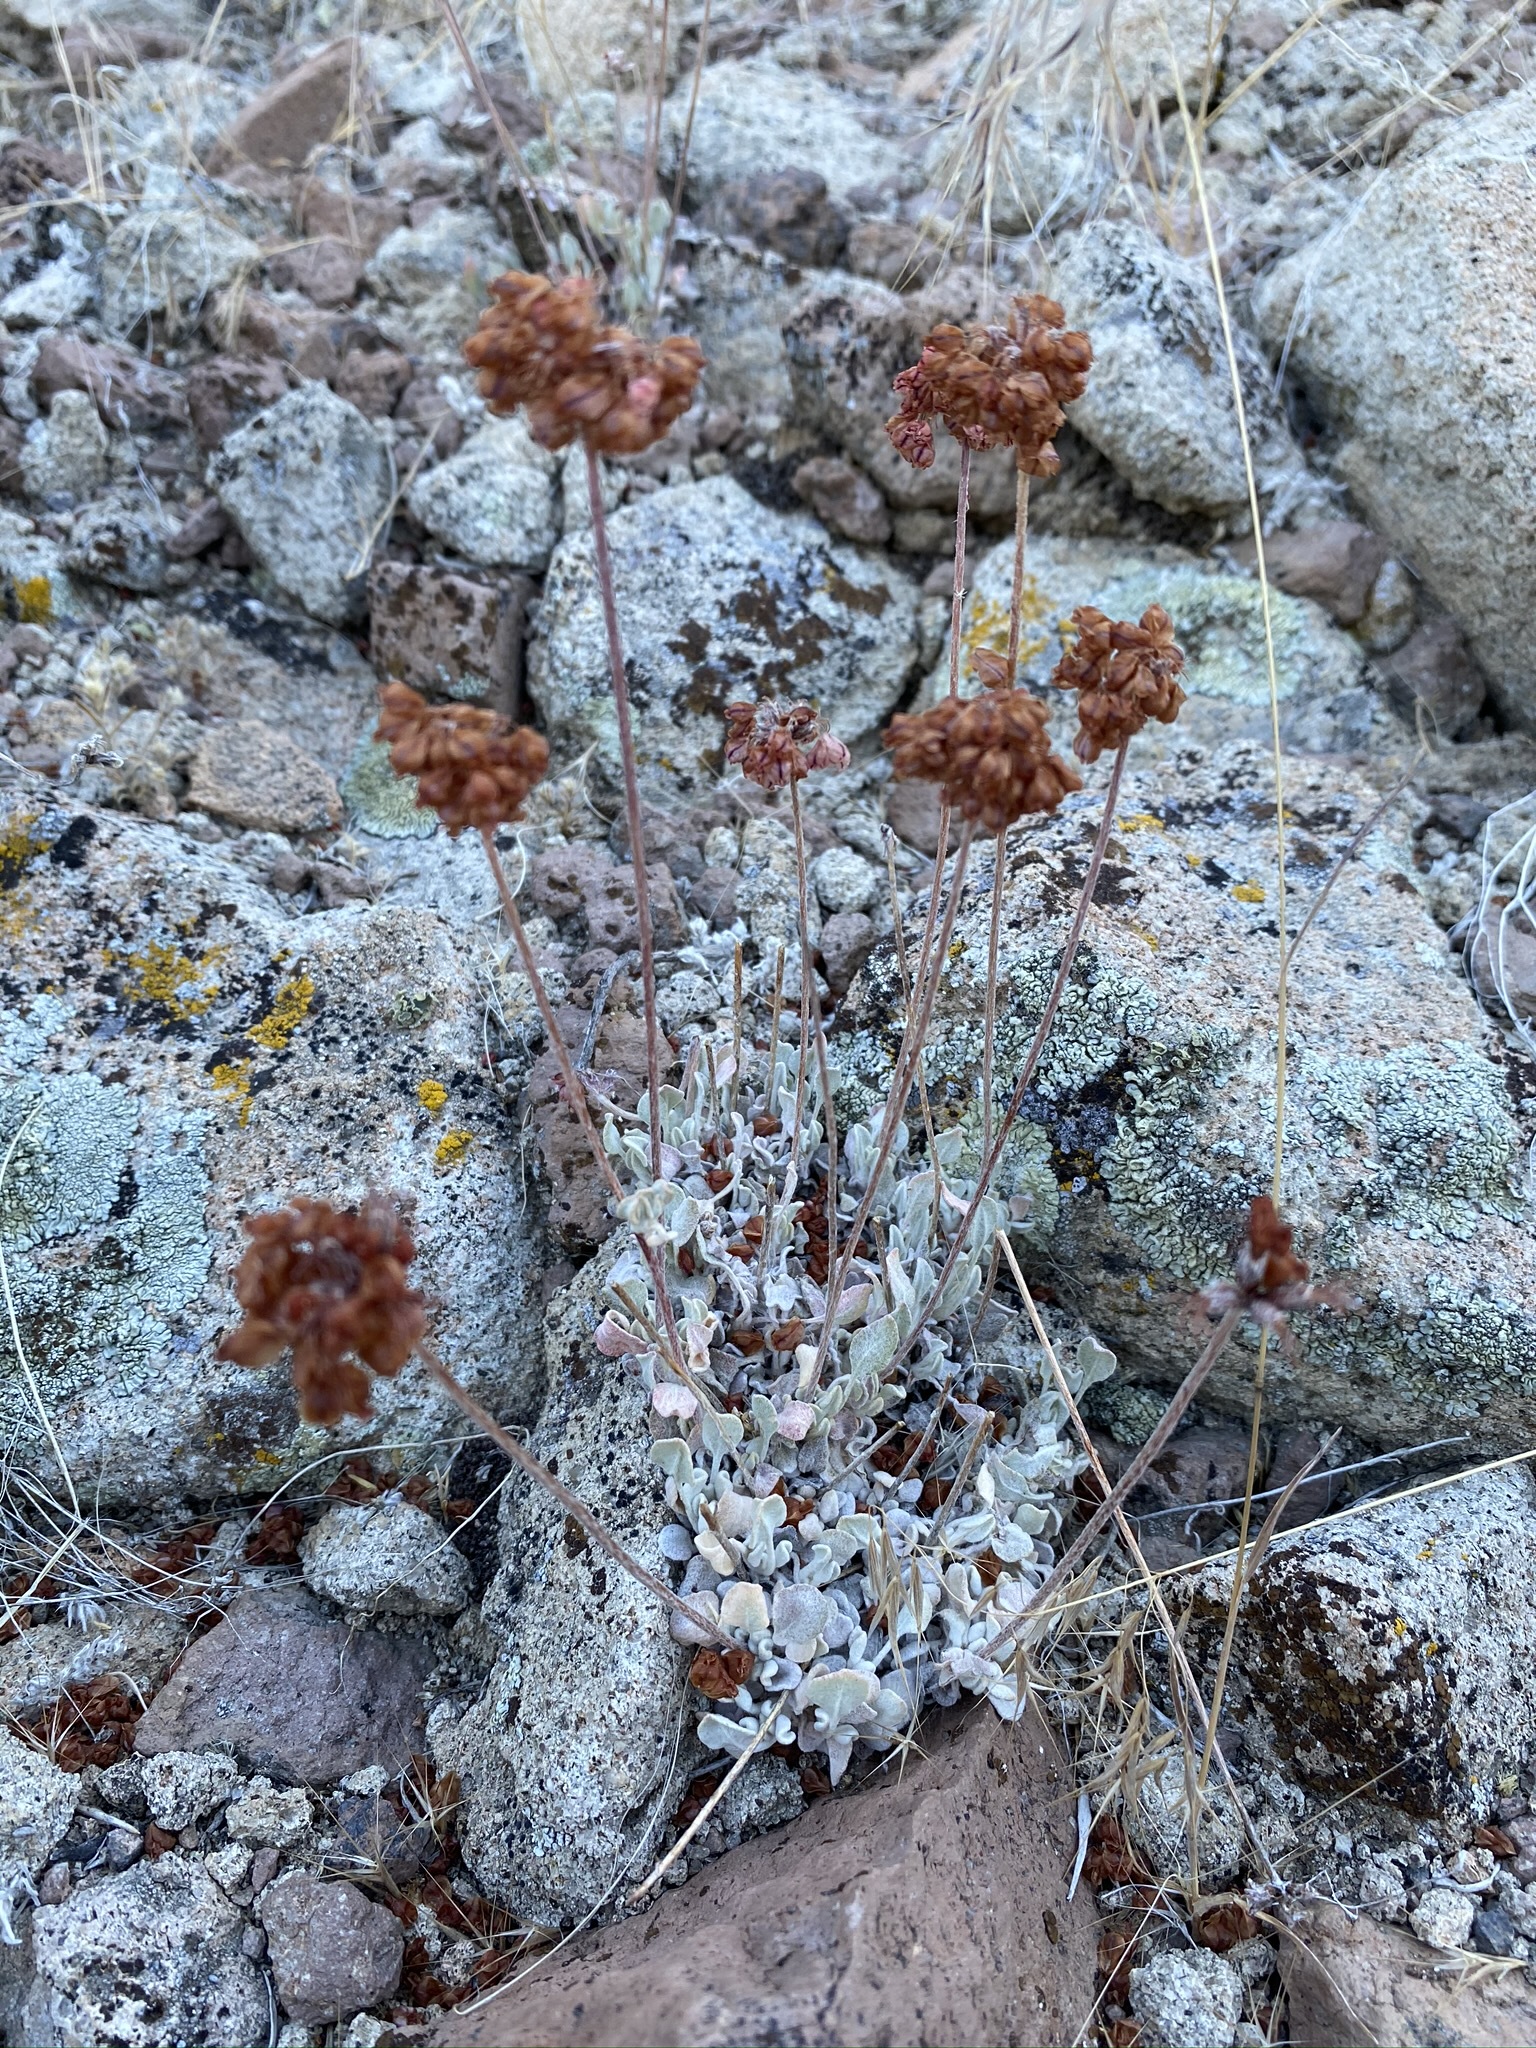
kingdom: Plantae
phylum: Tracheophyta
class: Magnoliopsida
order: Caryophyllales
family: Polygonaceae
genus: Eriogonum
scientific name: Eriogonum ovalifolium
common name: Cushion buckwheat
